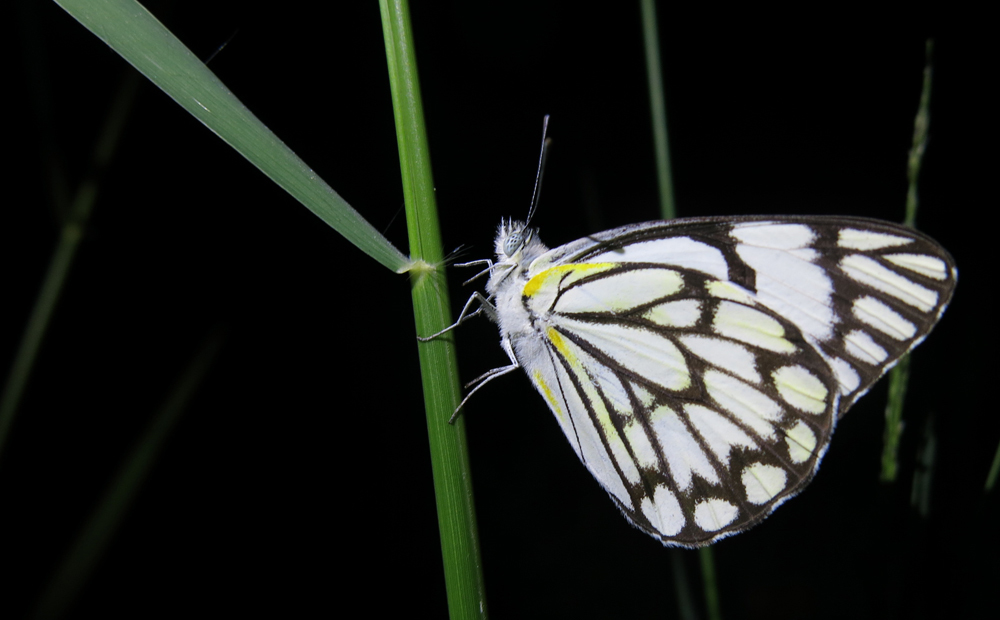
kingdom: Animalia
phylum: Arthropoda
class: Insecta
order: Lepidoptera
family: Pieridae
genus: Belenois
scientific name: Belenois aurota
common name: Brown-veined white
